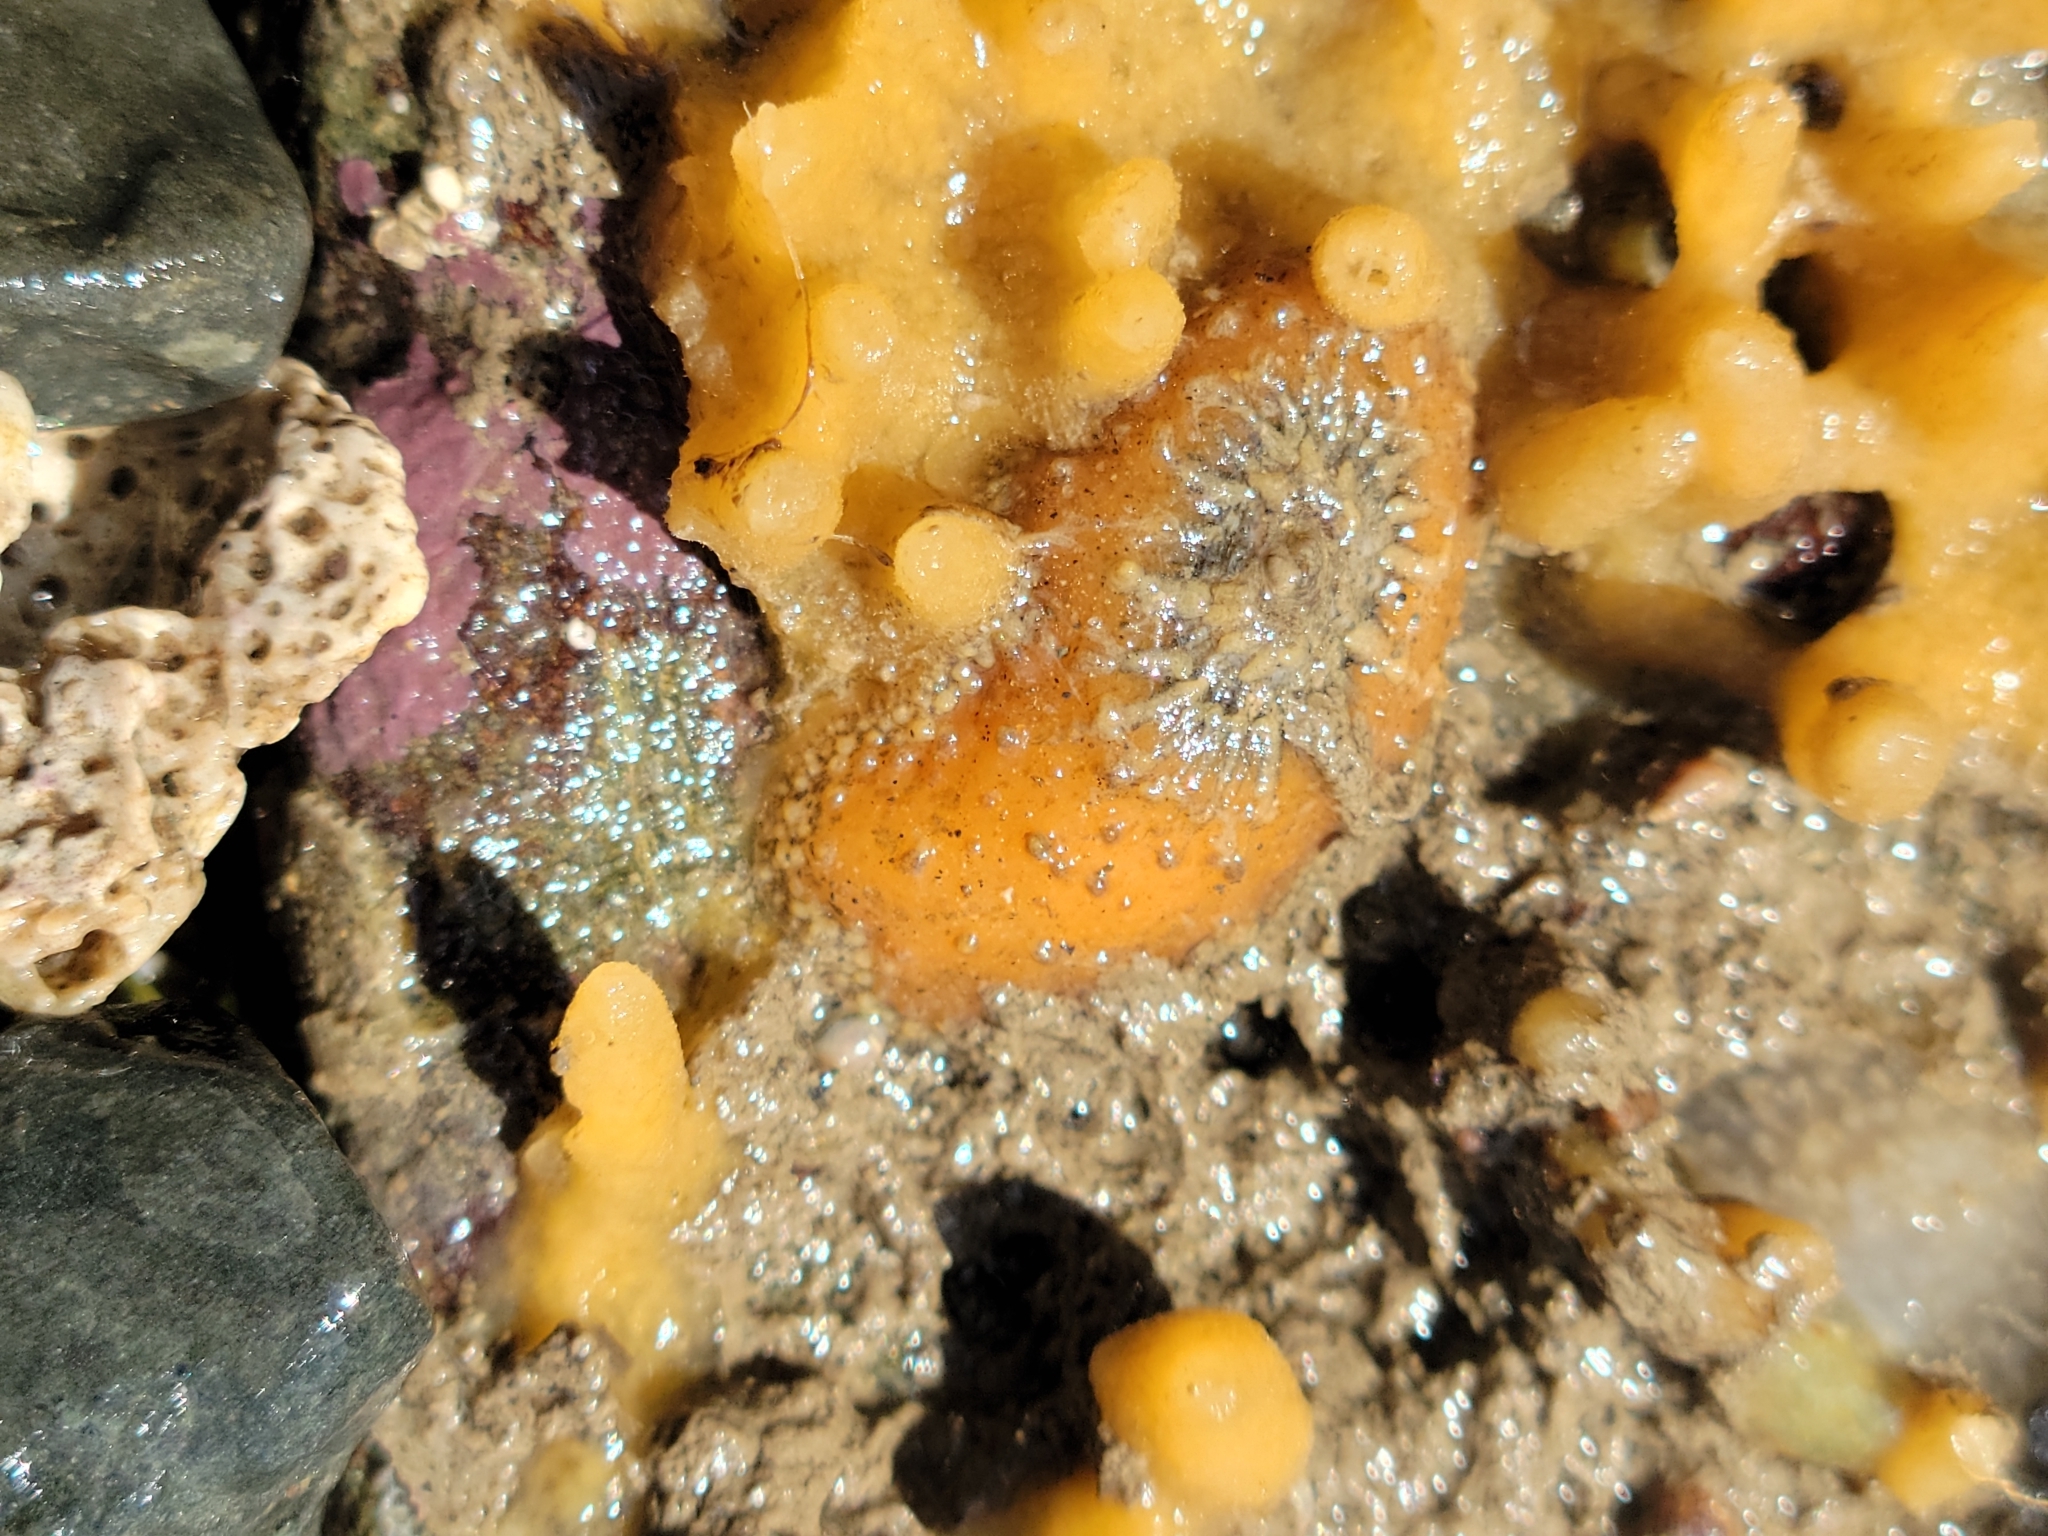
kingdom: Animalia
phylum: Mollusca
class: Gastropoda
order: Lepetellida
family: Fissurellidae
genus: Fissurellidea
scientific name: Fissurellidea bimaculata
